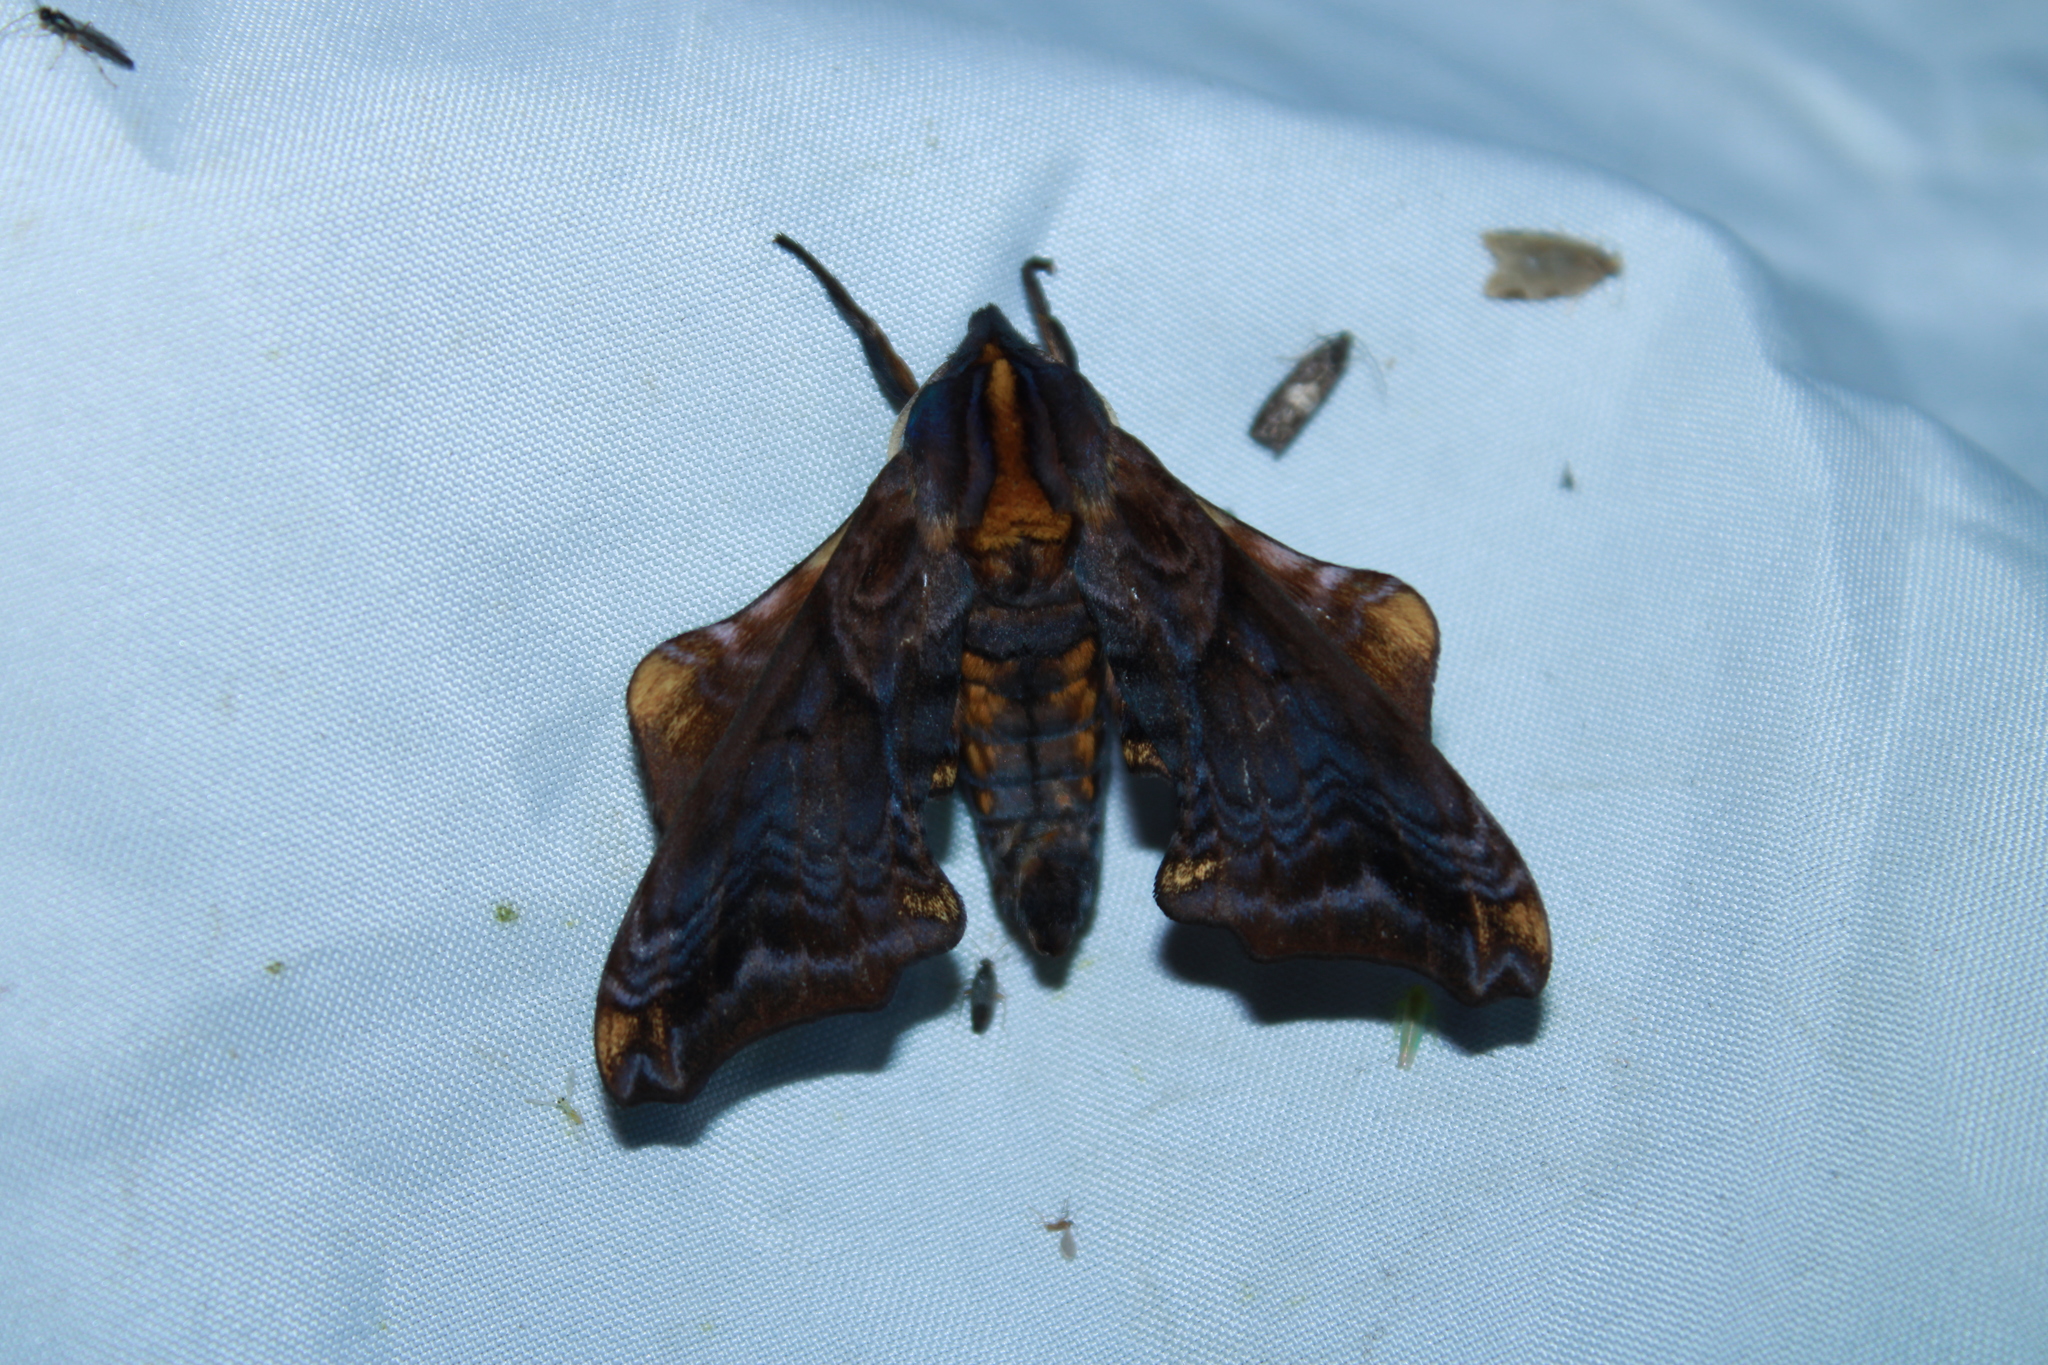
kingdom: Animalia
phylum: Arthropoda
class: Insecta
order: Lepidoptera
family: Sphingidae
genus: Paonias
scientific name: Paonias myops
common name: Small-eyed sphinx
